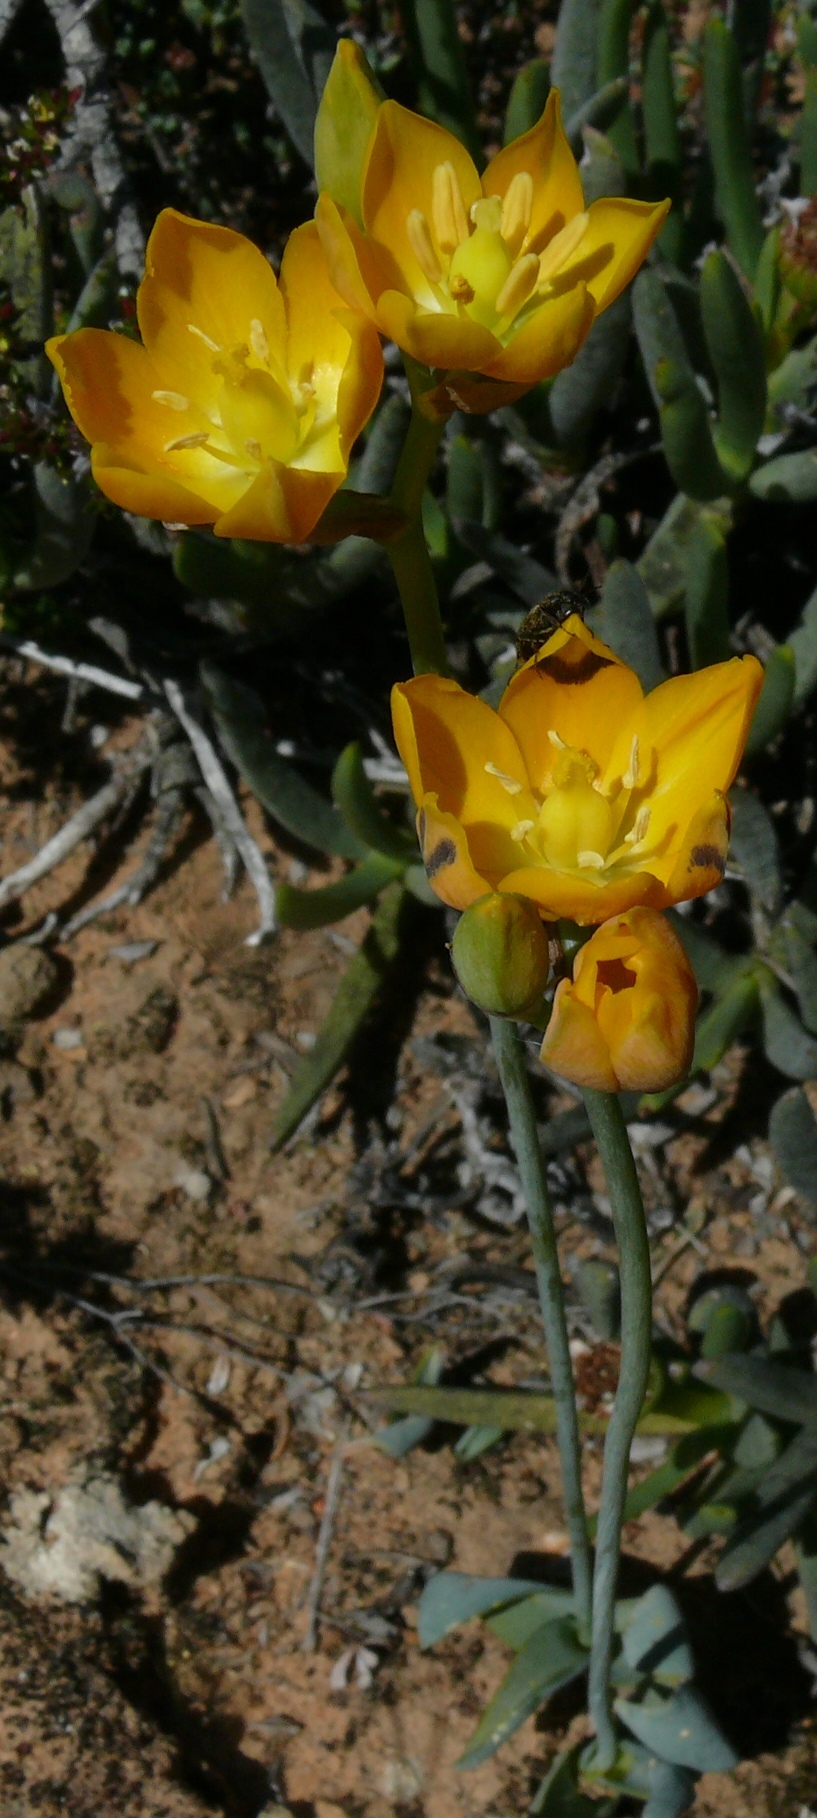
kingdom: Plantae
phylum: Tracheophyta
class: Liliopsida
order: Asparagales
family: Asparagaceae
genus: Ornithogalum
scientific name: Ornithogalum maculatum
